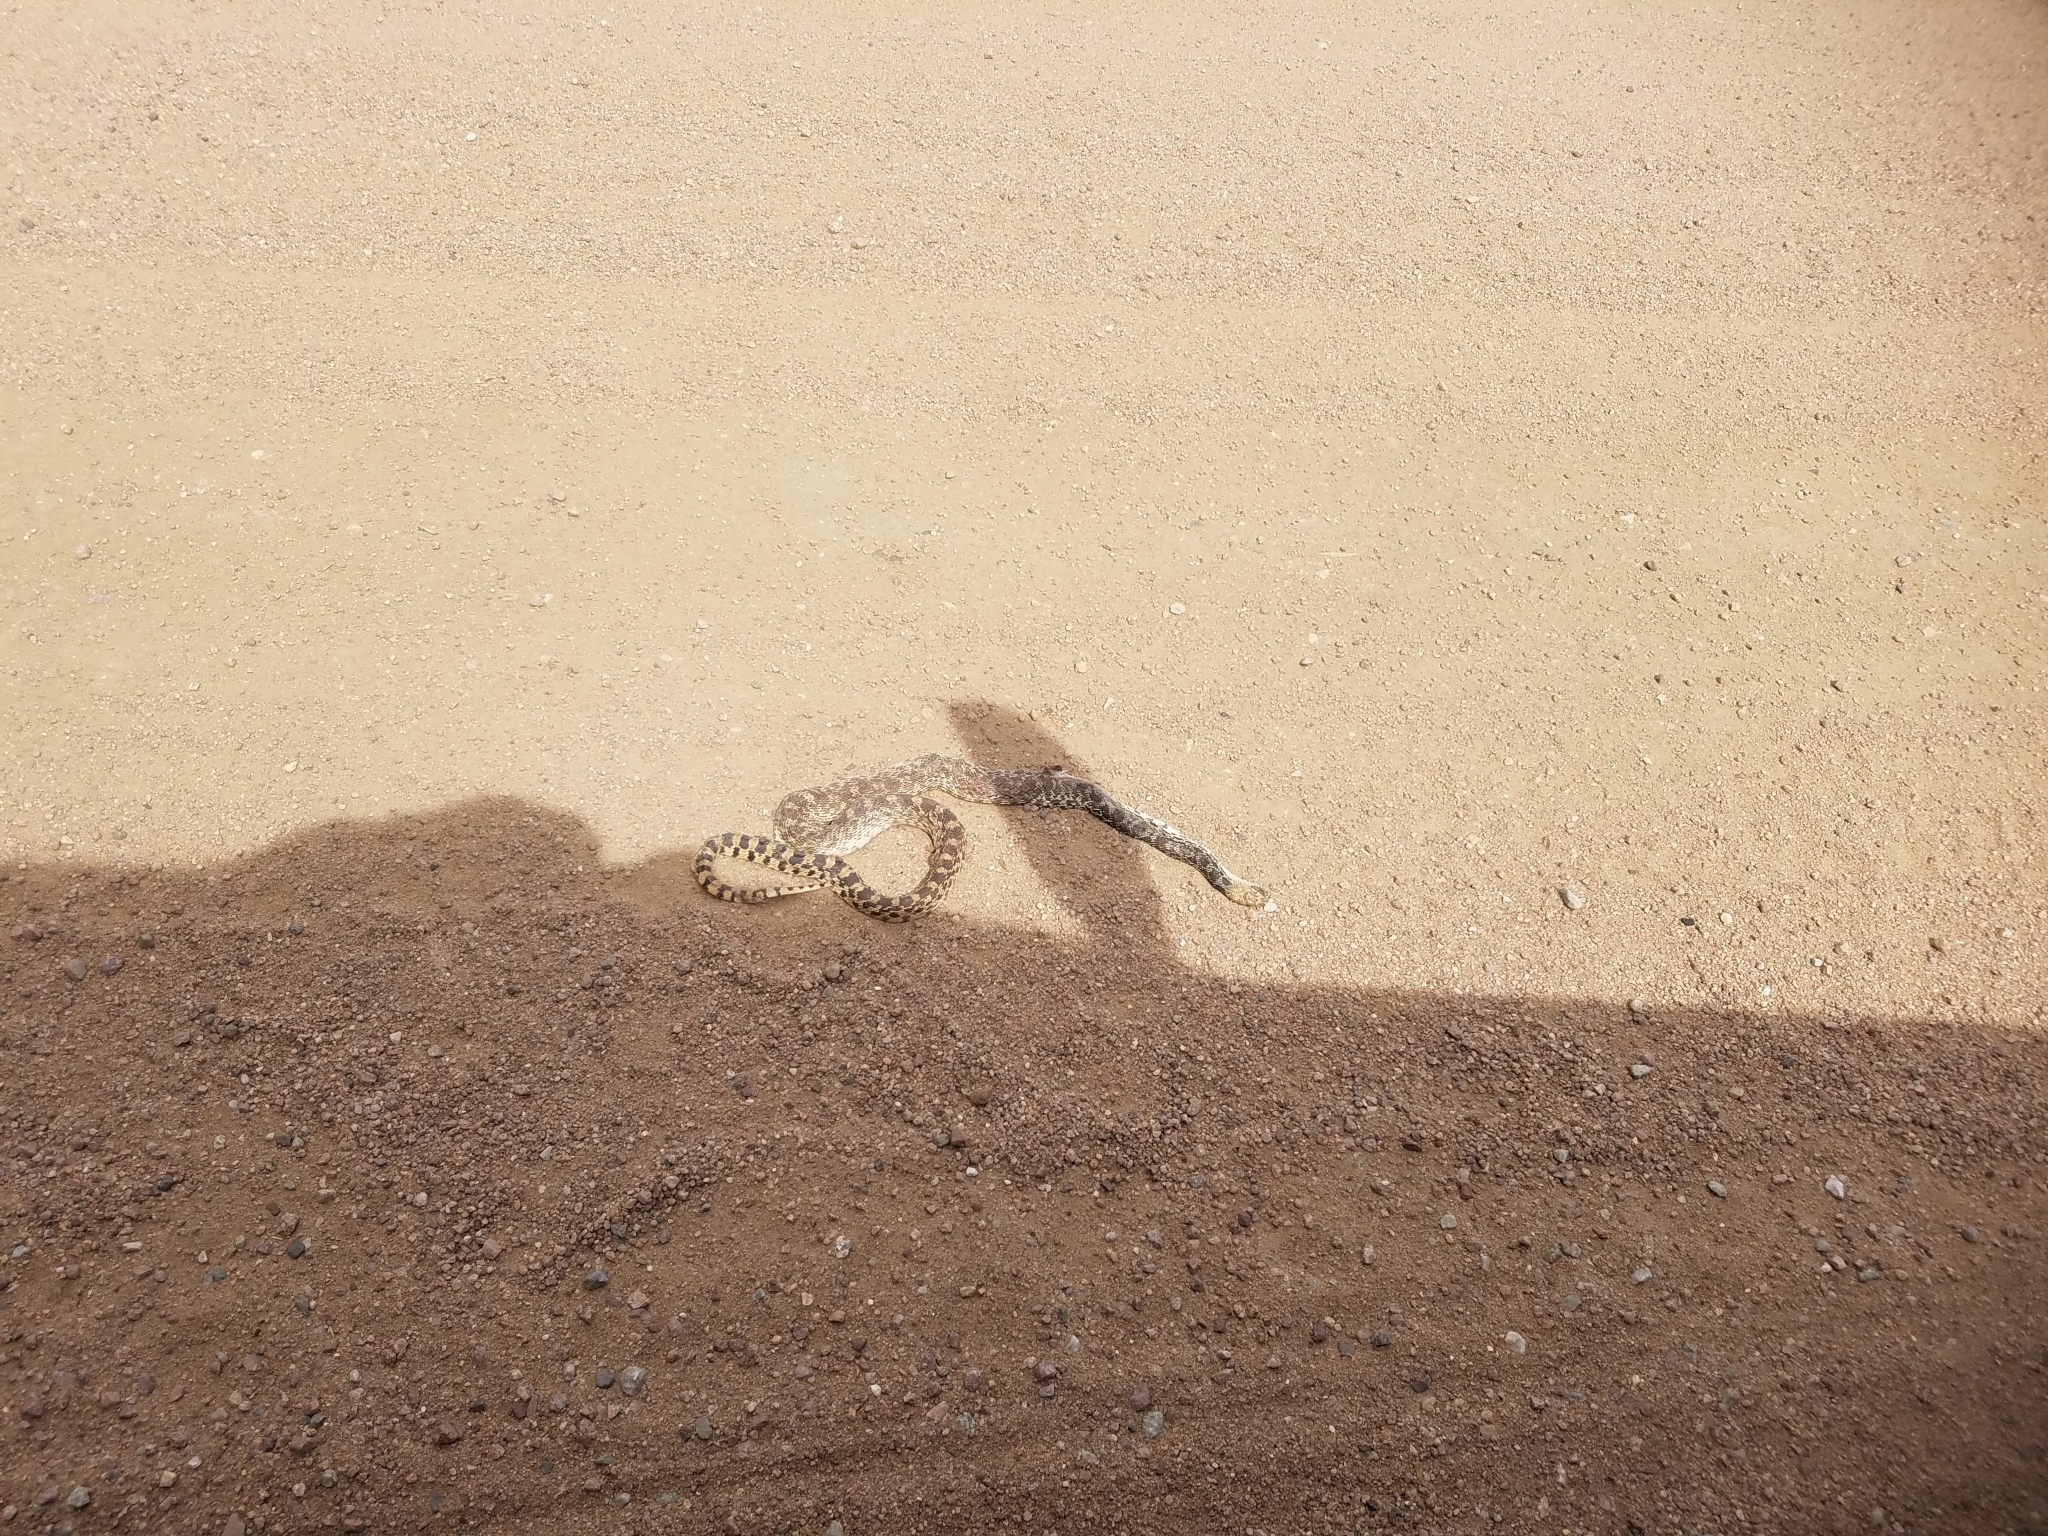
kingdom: Animalia
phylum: Chordata
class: Squamata
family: Colubridae
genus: Pituophis
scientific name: Pituophis catenifer
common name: Gopher snake
